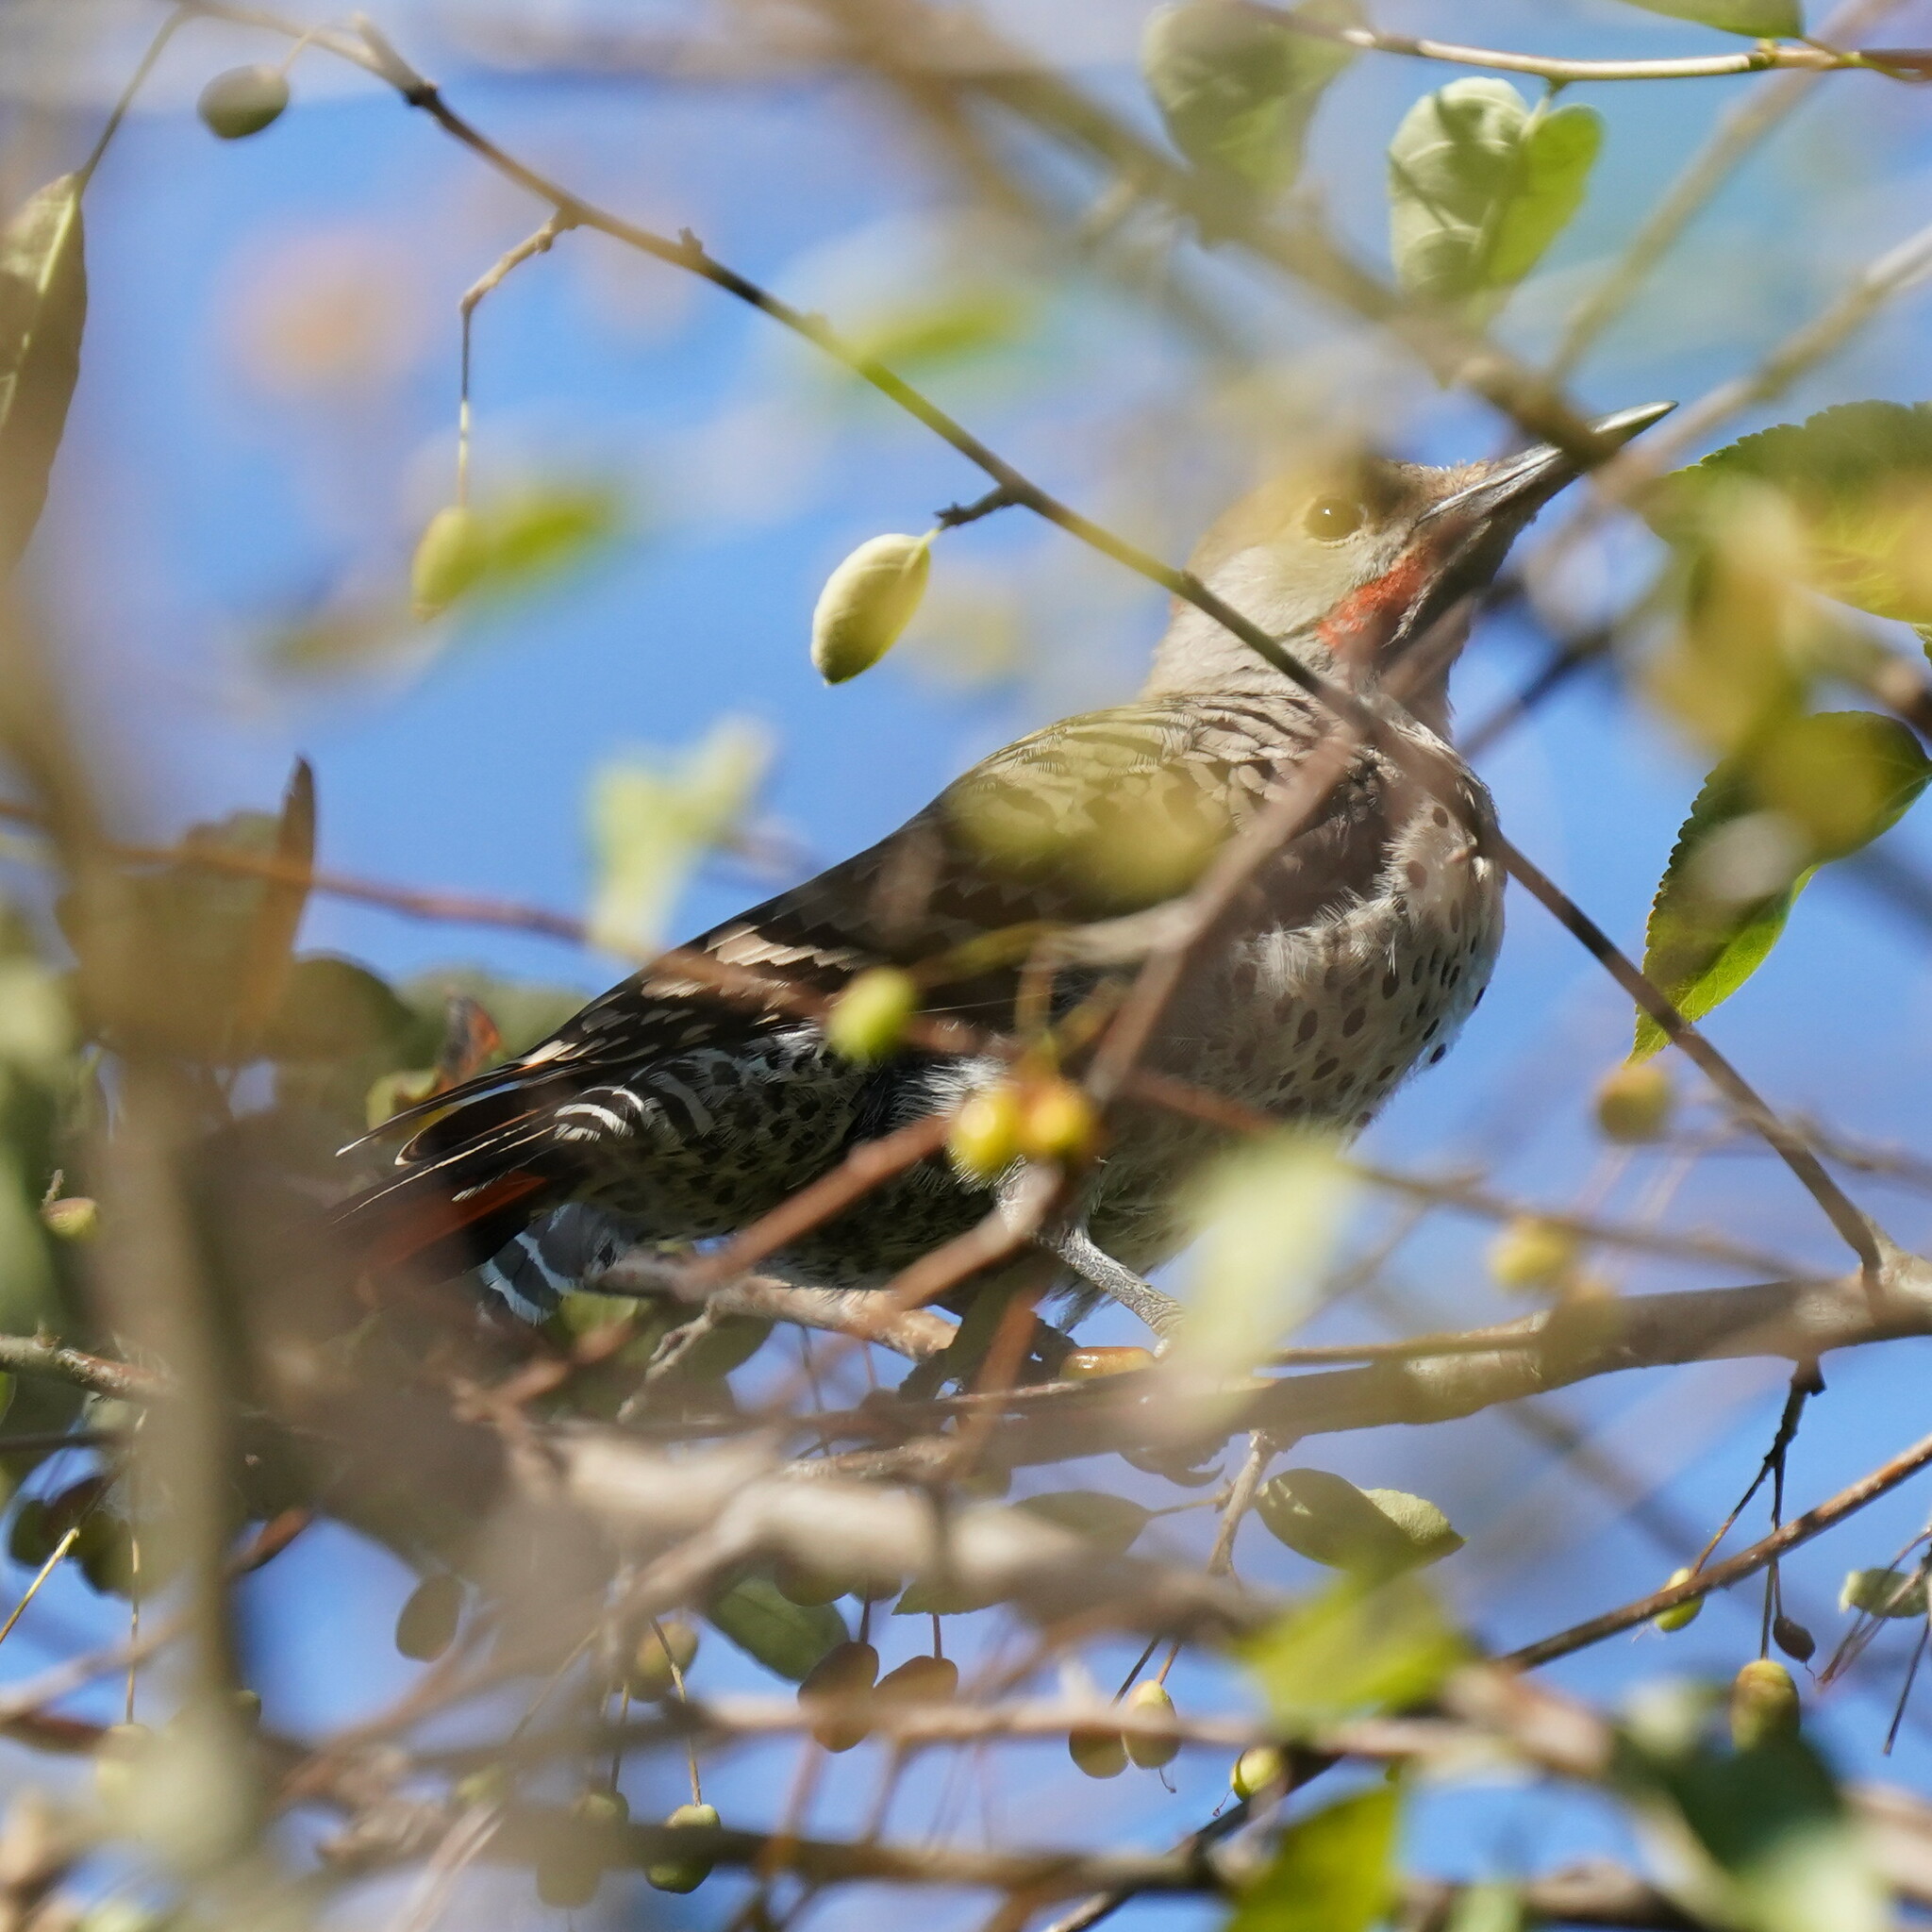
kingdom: Animalia
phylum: Chordata
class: Aves
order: Piciformes
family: Picidae
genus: Colaptes
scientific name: Colaptes auratus
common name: Northern flicker
